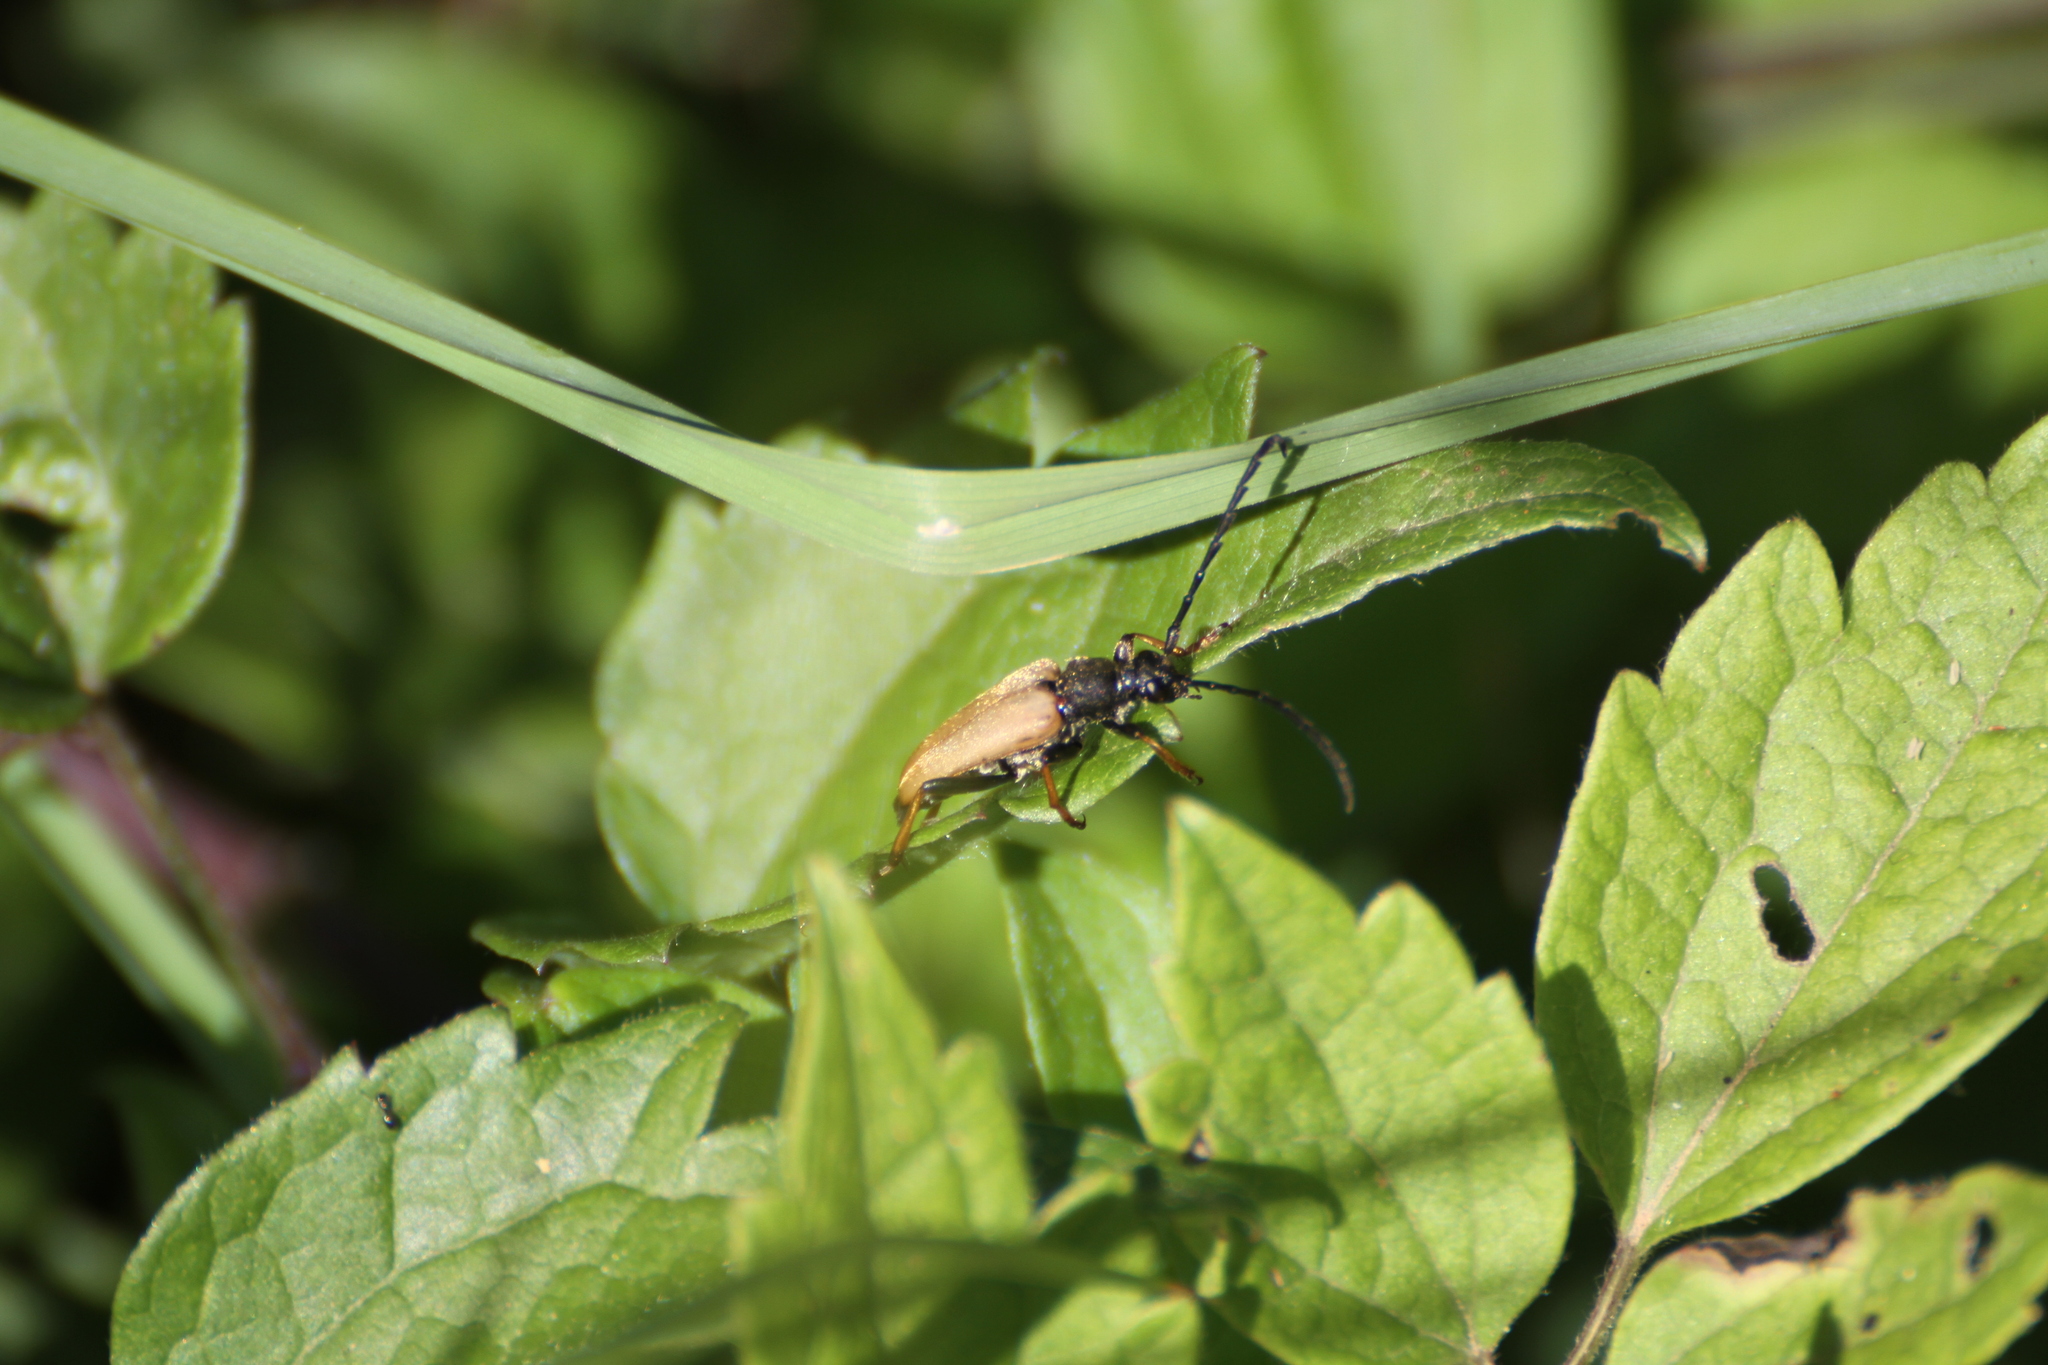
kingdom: Animalia
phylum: Arthropoda
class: Insecta
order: Coleoptera
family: Cerambycidae
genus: Stictoleptura
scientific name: Stictoleptura rubra
